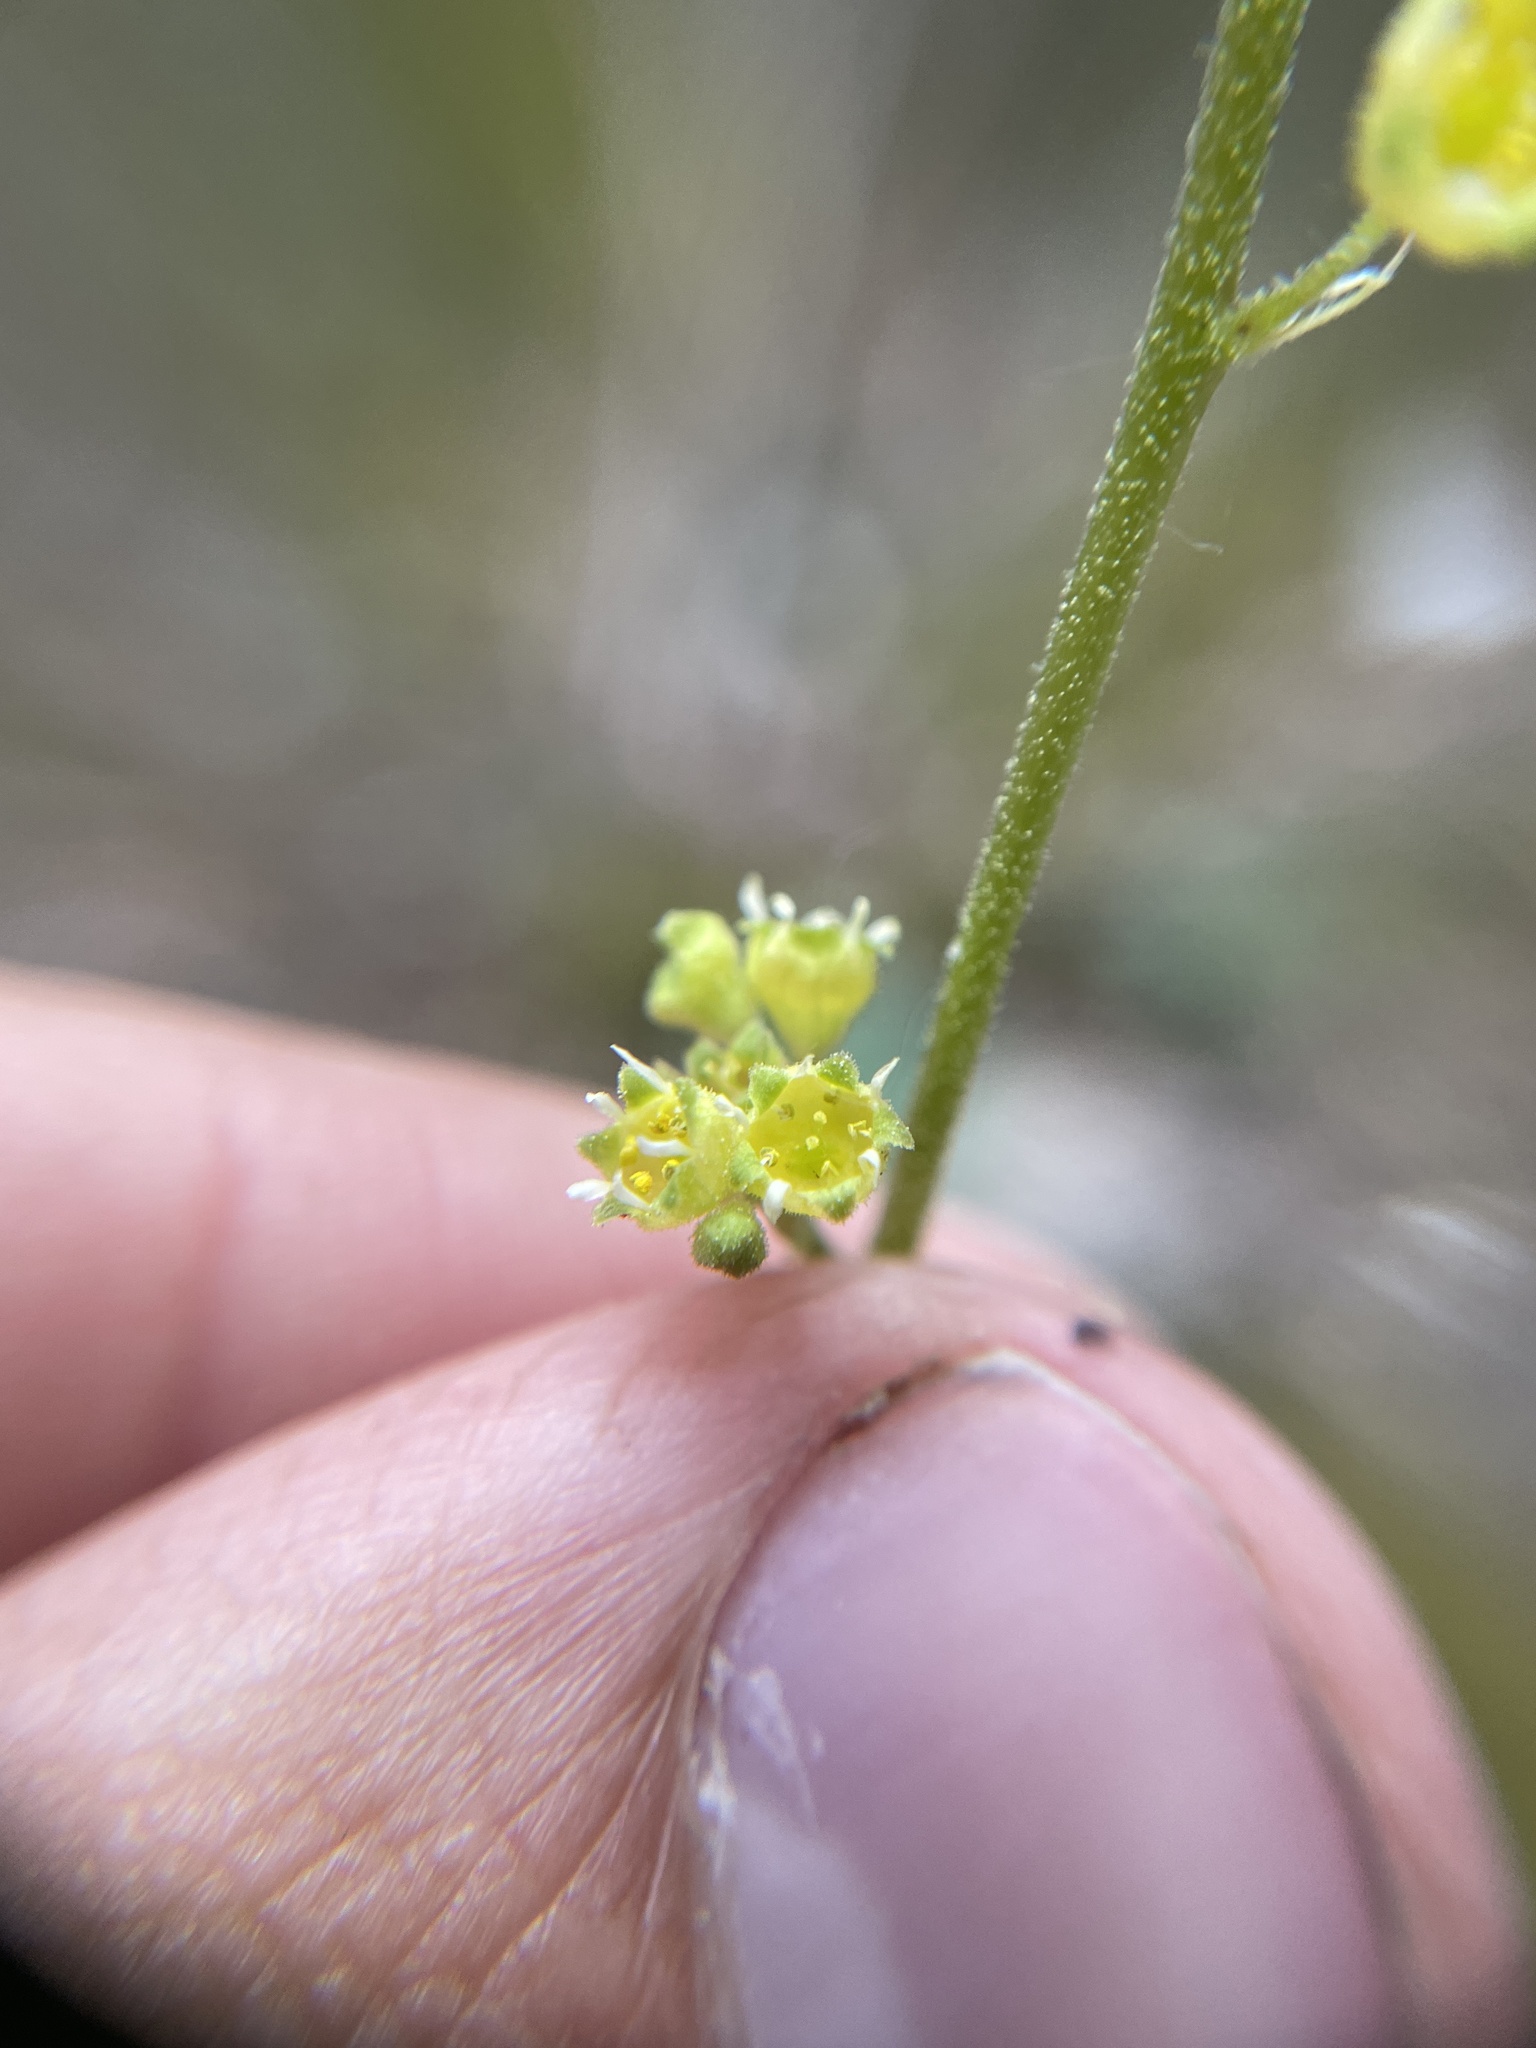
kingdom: Plantae
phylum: Tracheophyta
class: Magnoliopsida
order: Saxifragales
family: Saxifragaceae
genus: Heuchera
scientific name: Heuchera parvifolia
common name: Common alumroot
